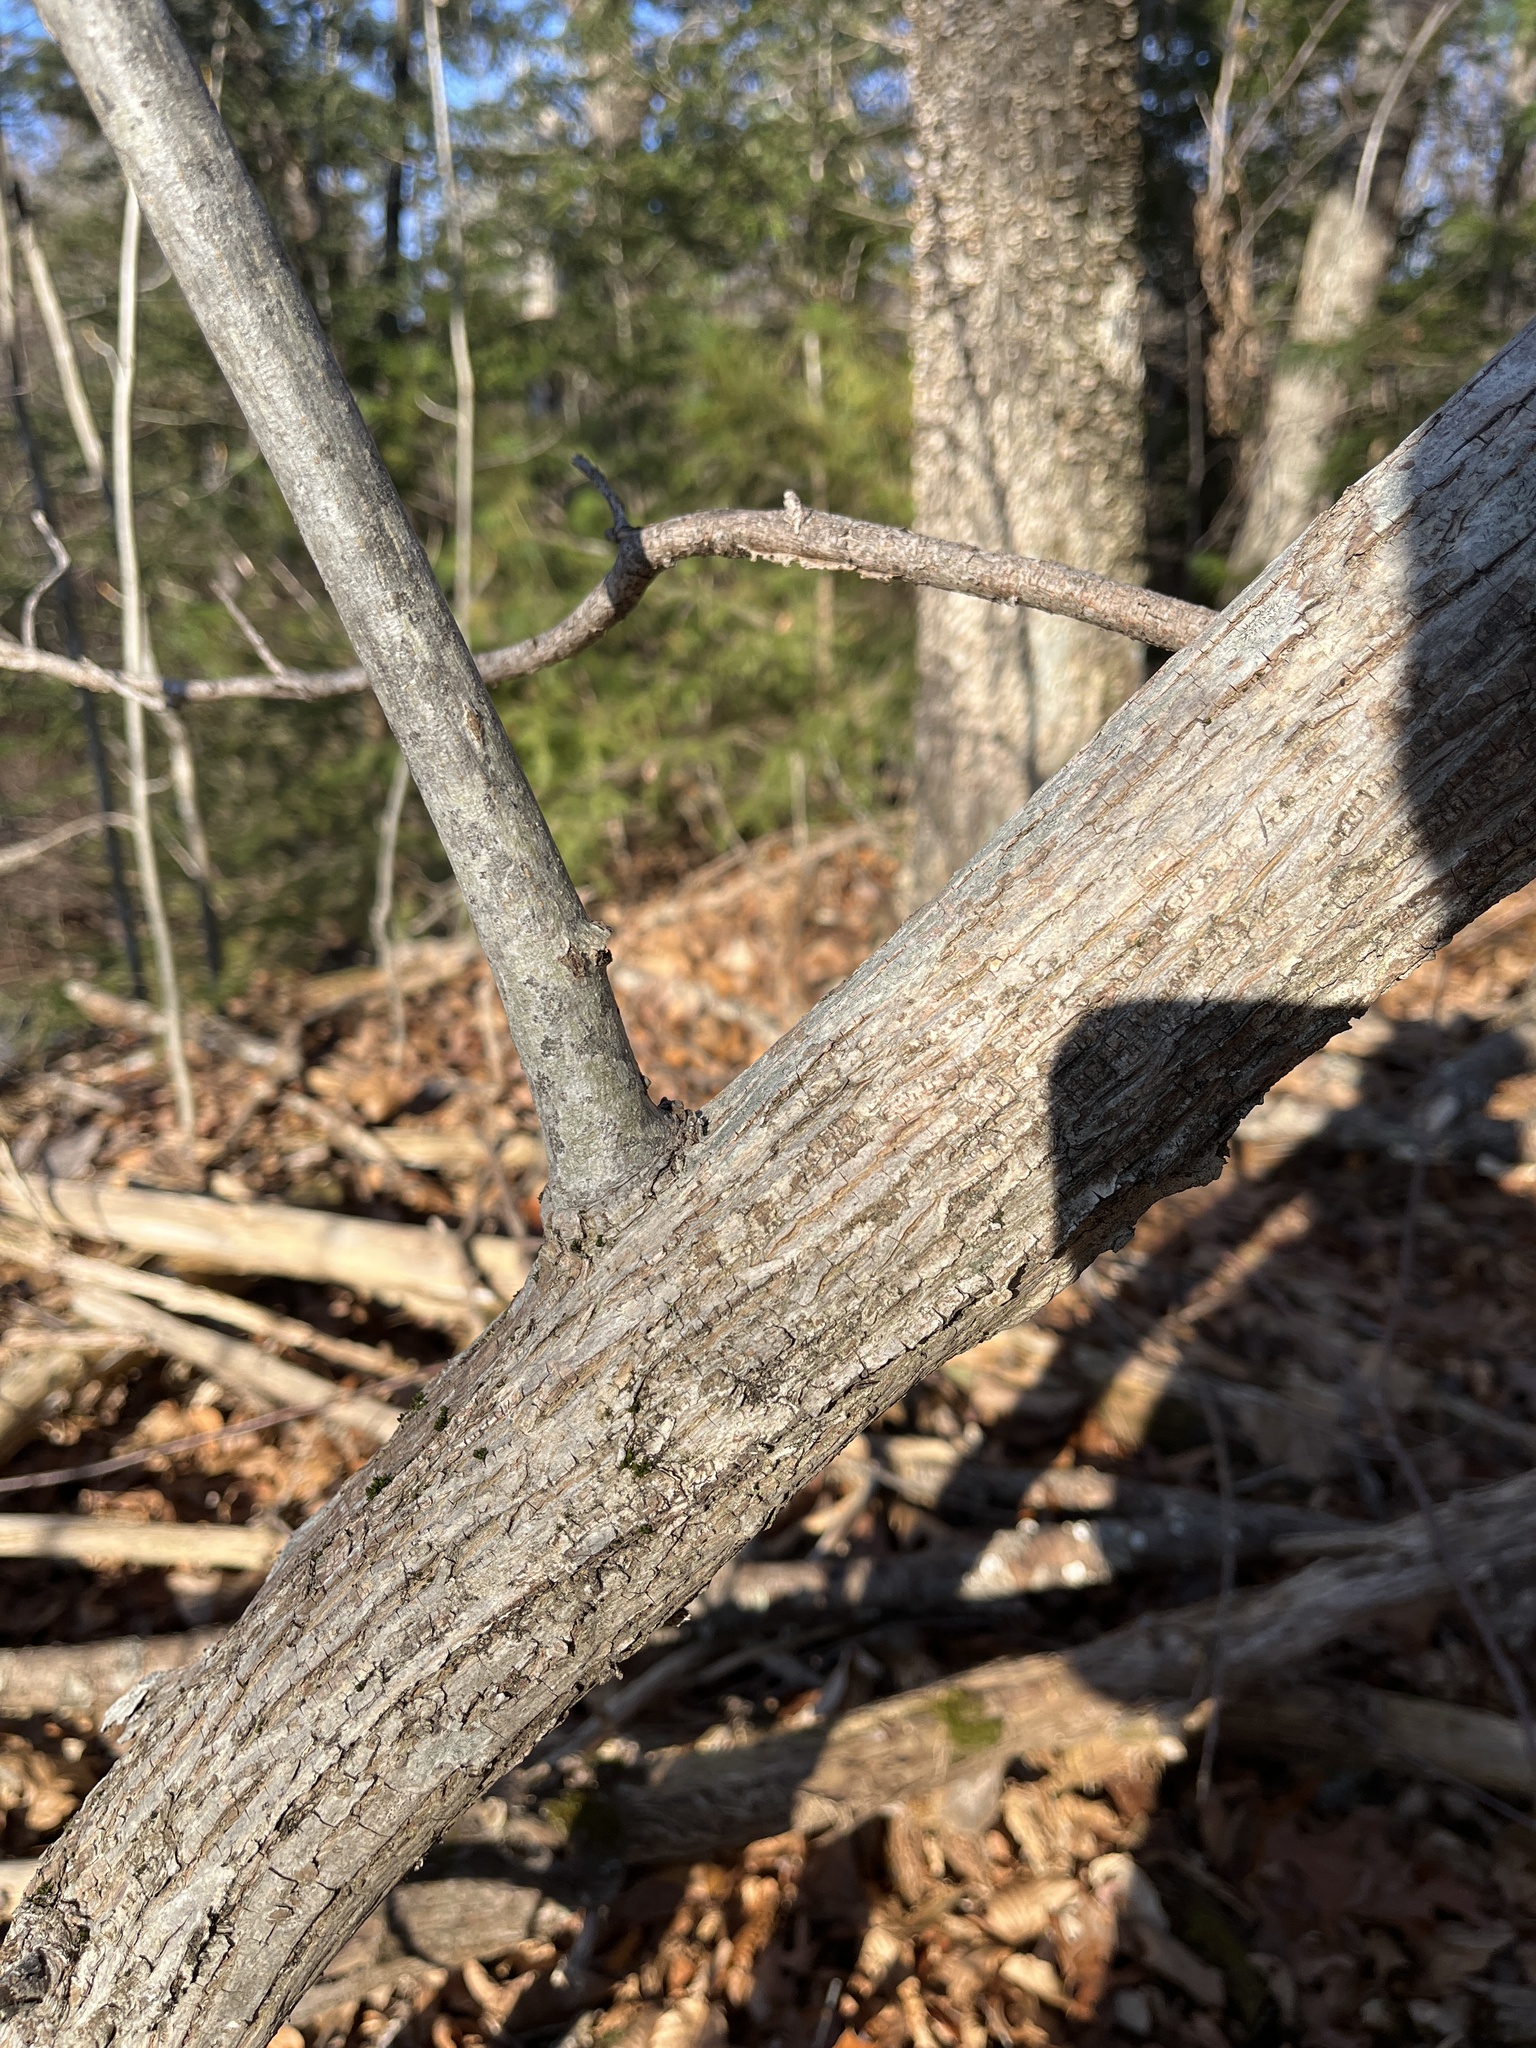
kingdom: Plantae
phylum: Tracheophyta
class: Magnoliopsida
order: Fagales
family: Juglandaceae
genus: Carya
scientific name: Carya cordiformis
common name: Bitternut hickory
